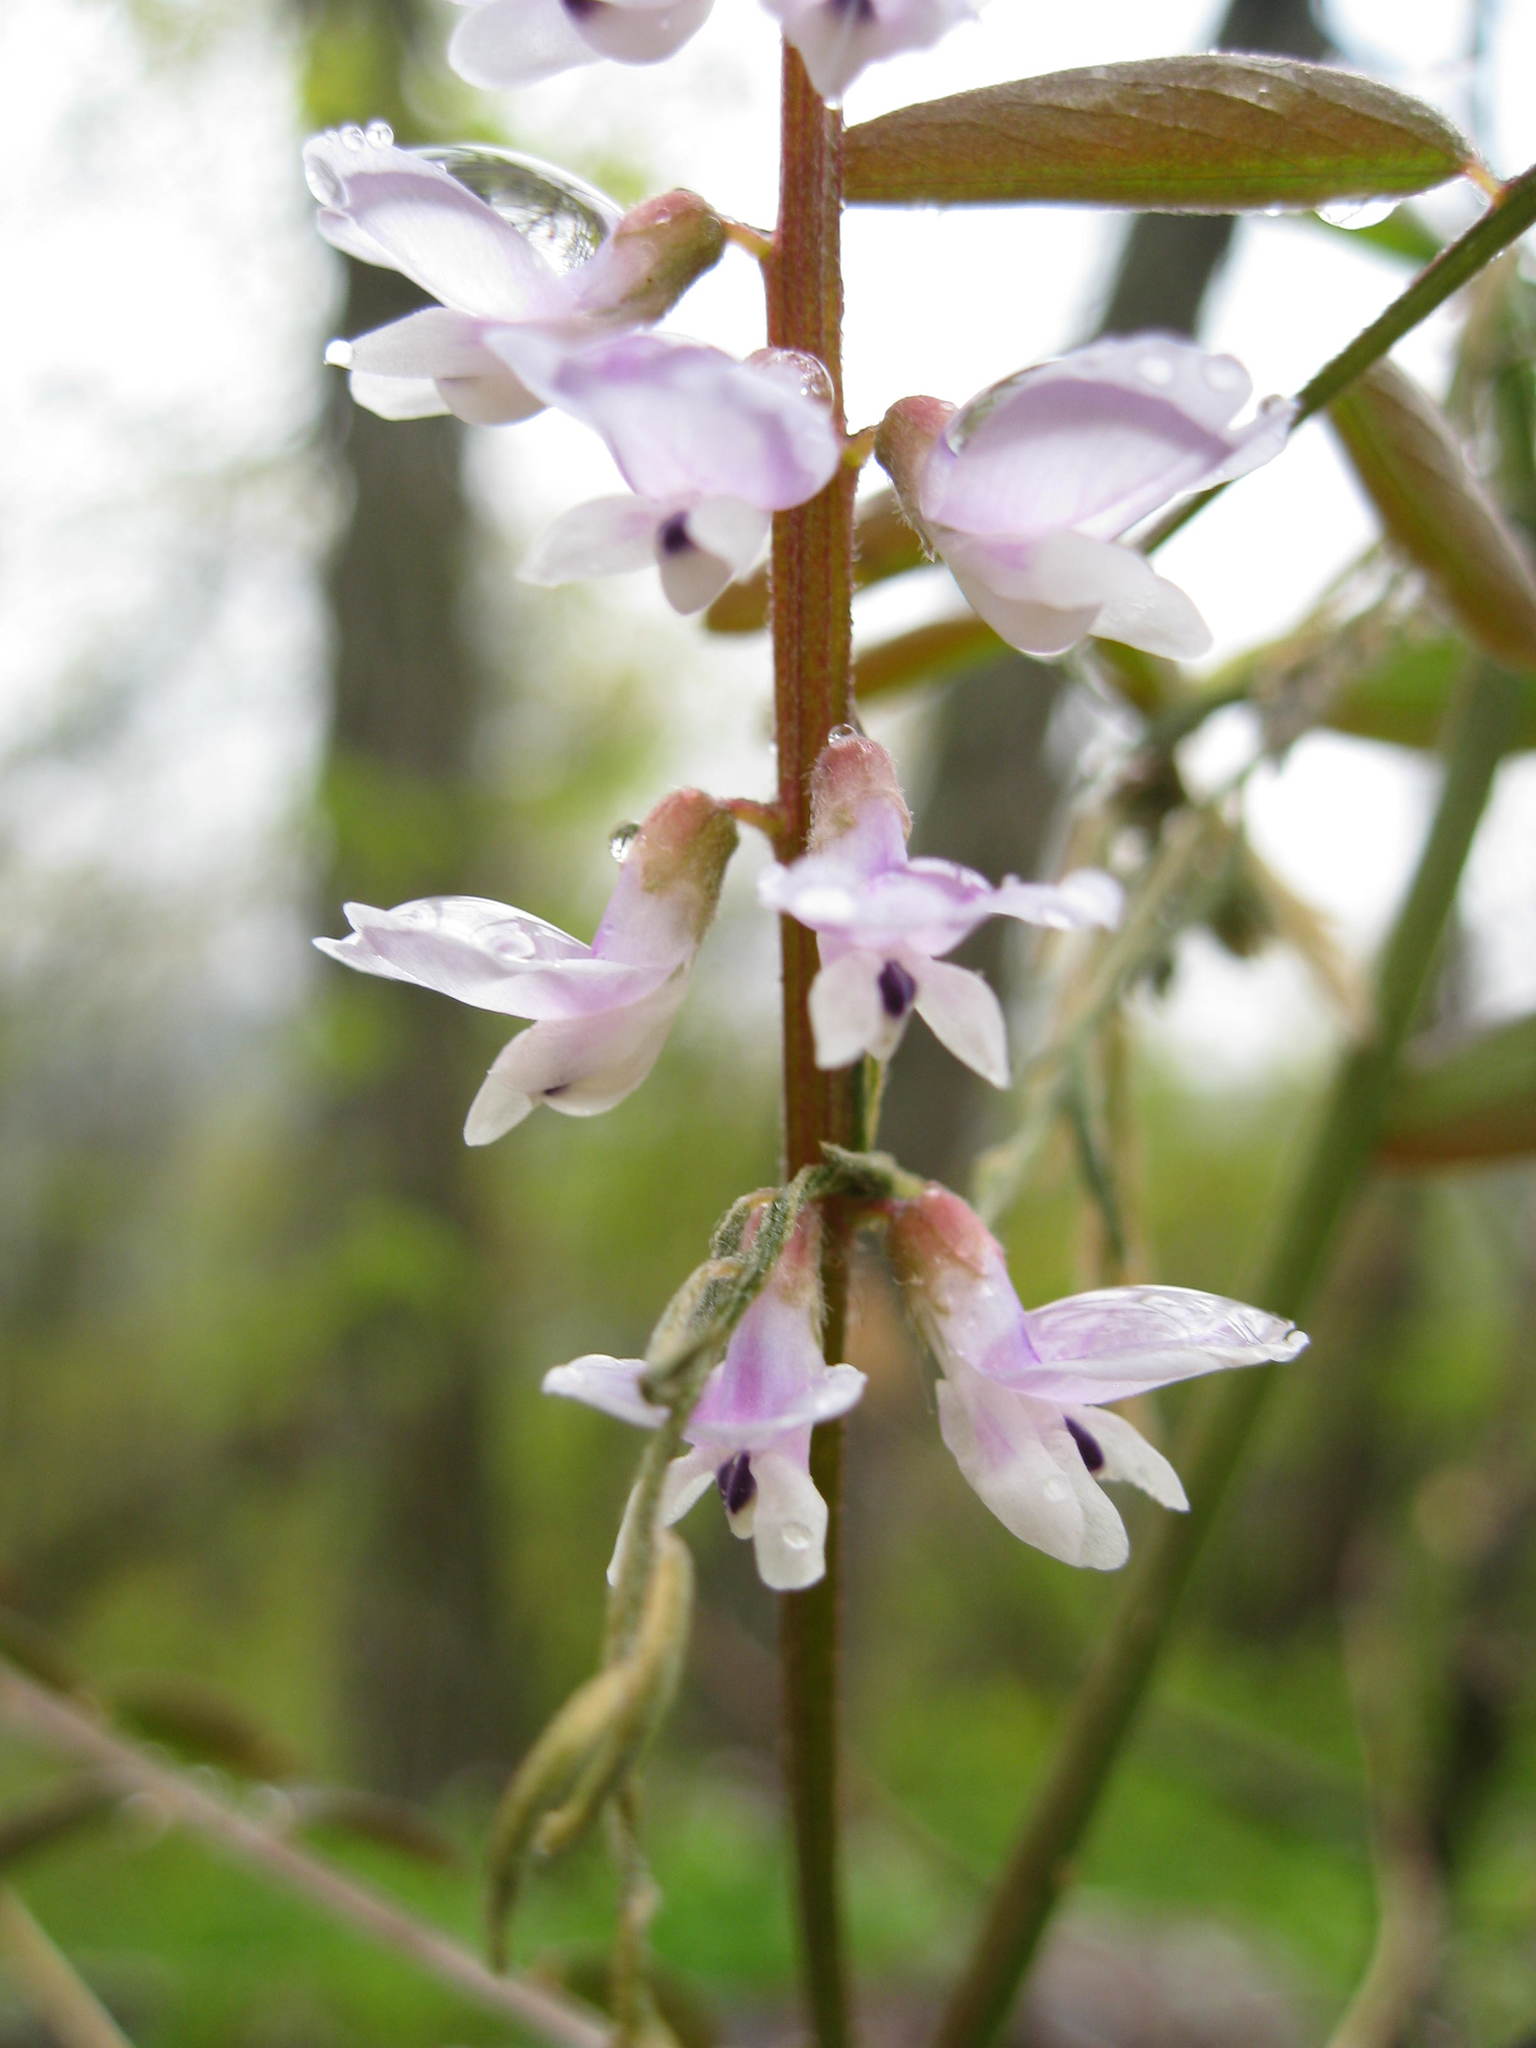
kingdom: Plantae
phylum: Tracheophyta
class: Magnoliopsida
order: Fabales
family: Fabaceae
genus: Vicia
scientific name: Vicia caroliniana
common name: Carolina vetch
